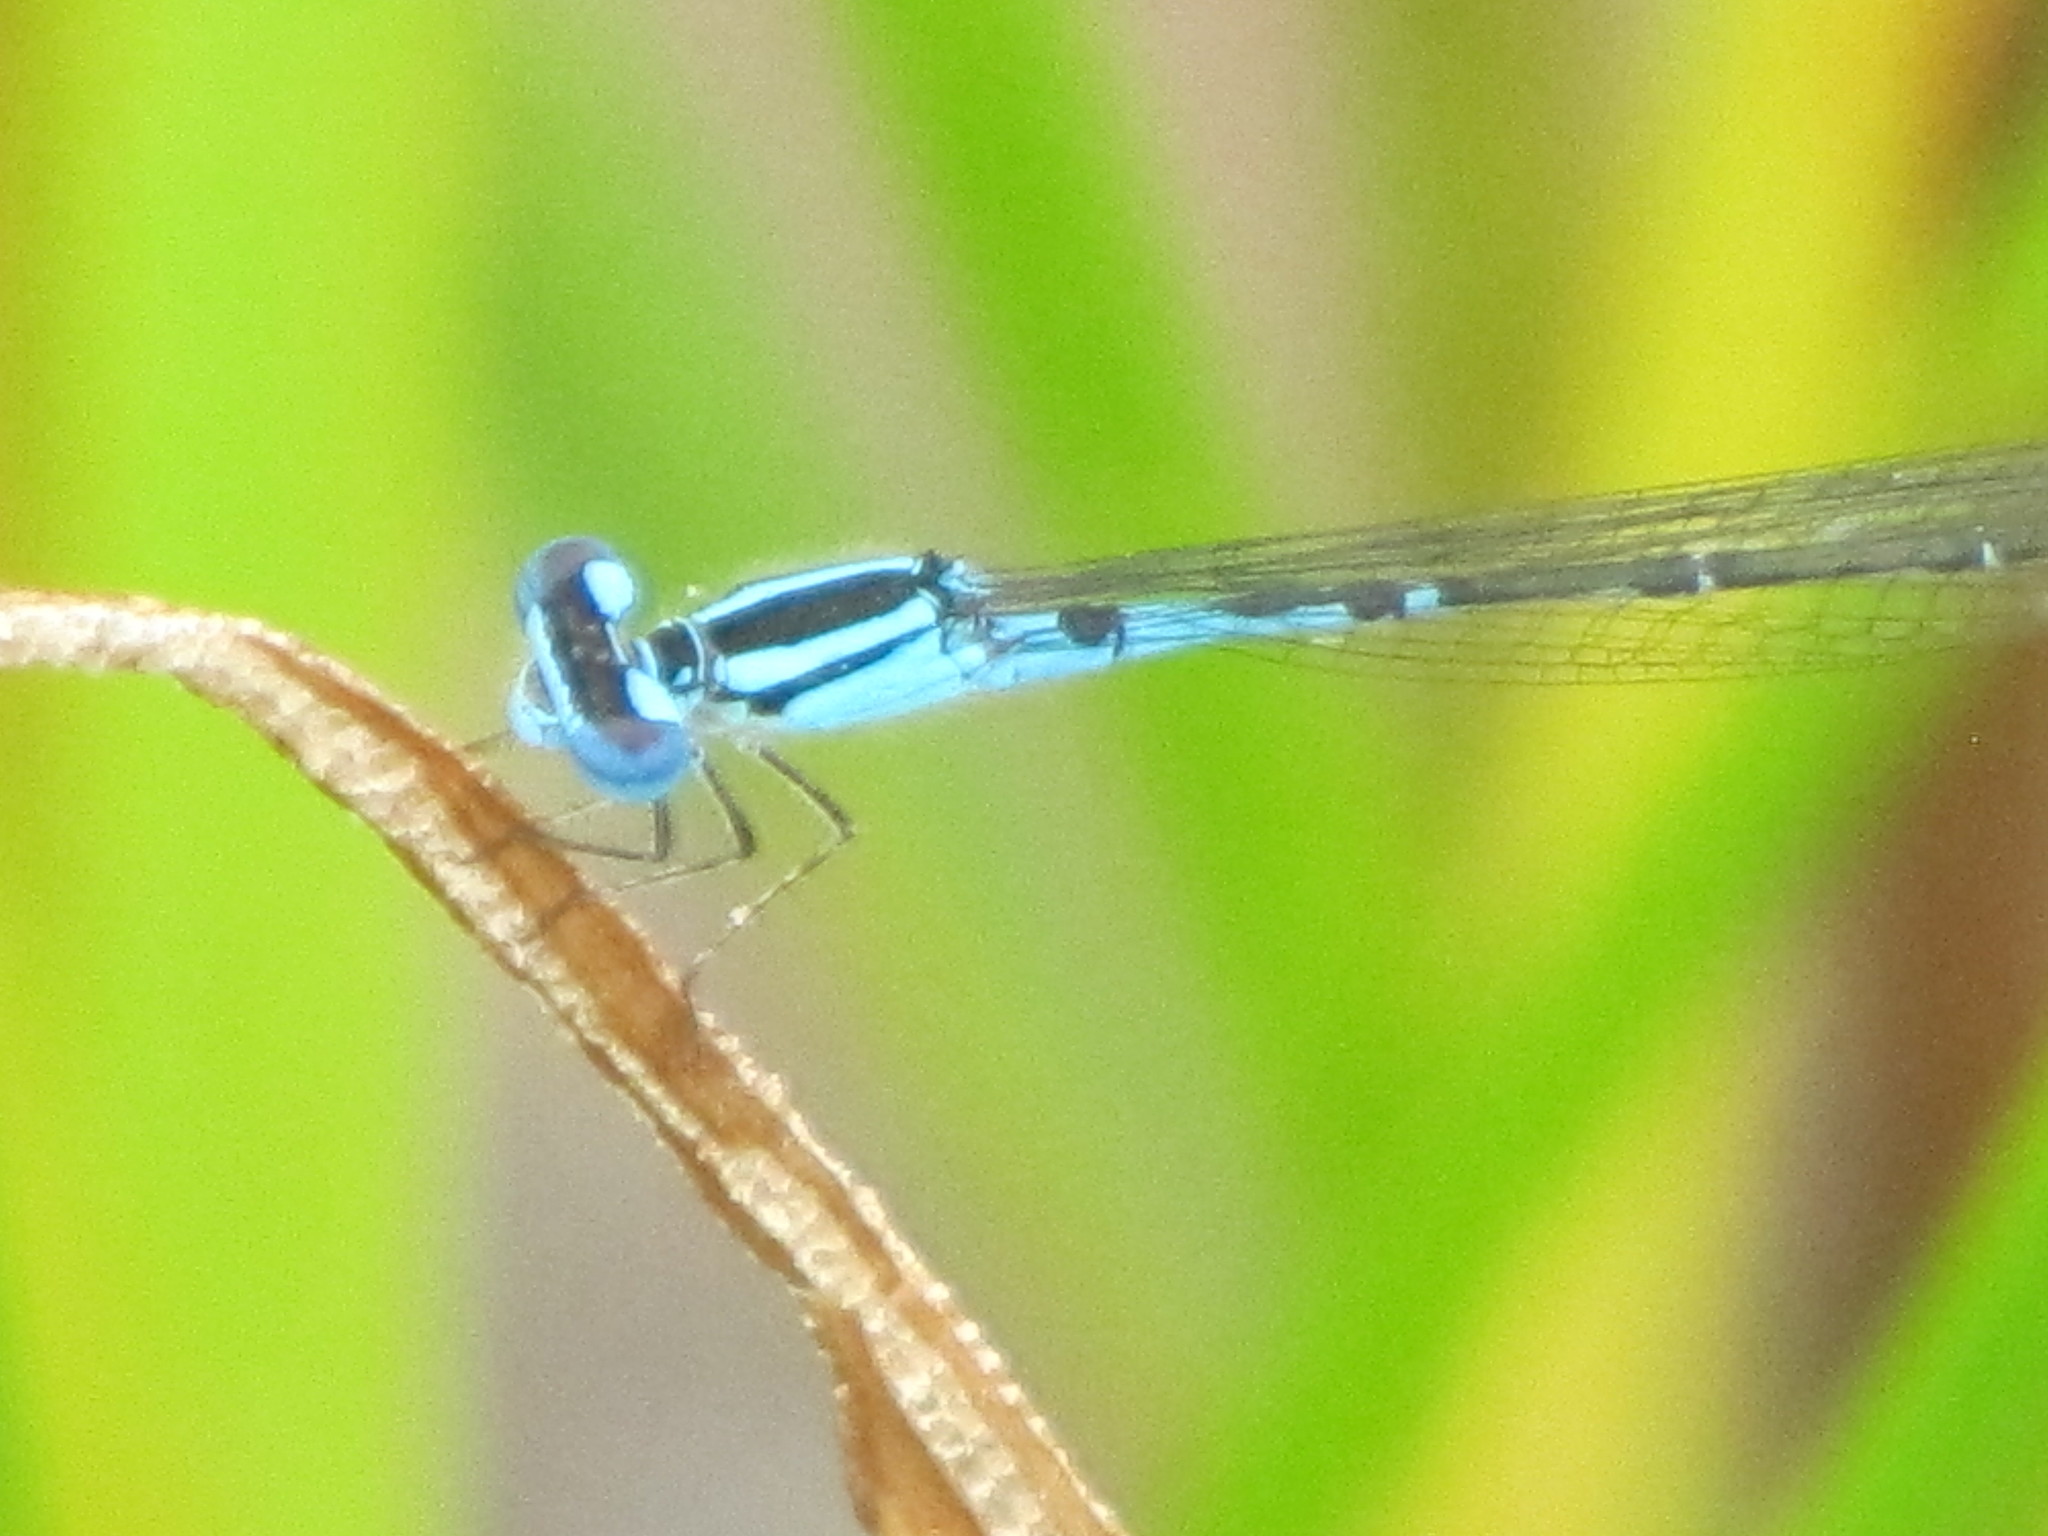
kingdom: Animalia
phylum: Arthropoda
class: Insecta
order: Odonata
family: Coenagrionidae
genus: Enallagma
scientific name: Enallagma aspersum
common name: Azure bluet
